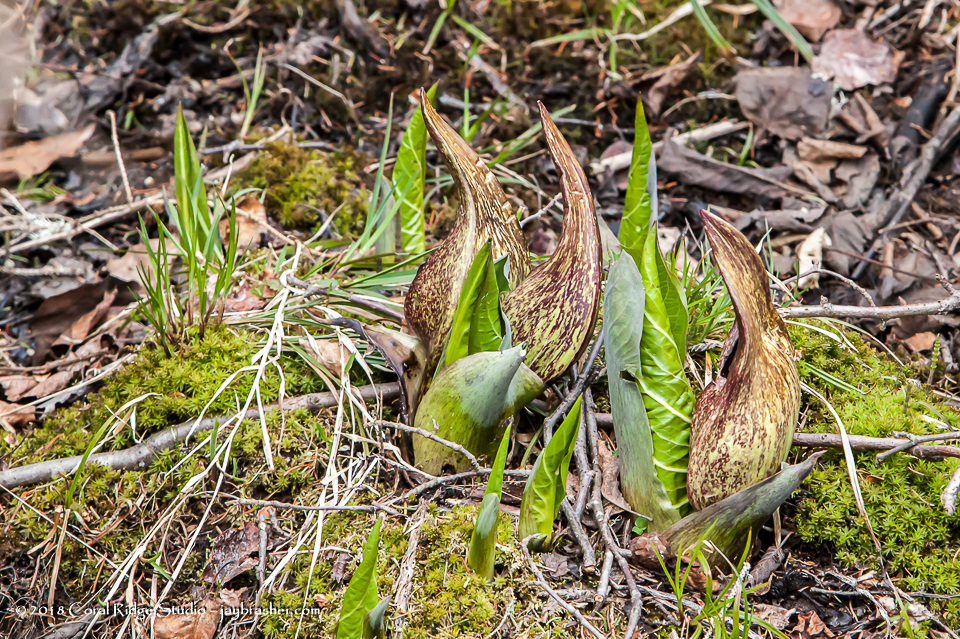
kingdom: Plantae
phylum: Tracheophyta
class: Liliopsida
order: Alismatales
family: Araceae
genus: Symplocarpus
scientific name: Symplocarpus foetidus
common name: Eastern skunk cabbage
